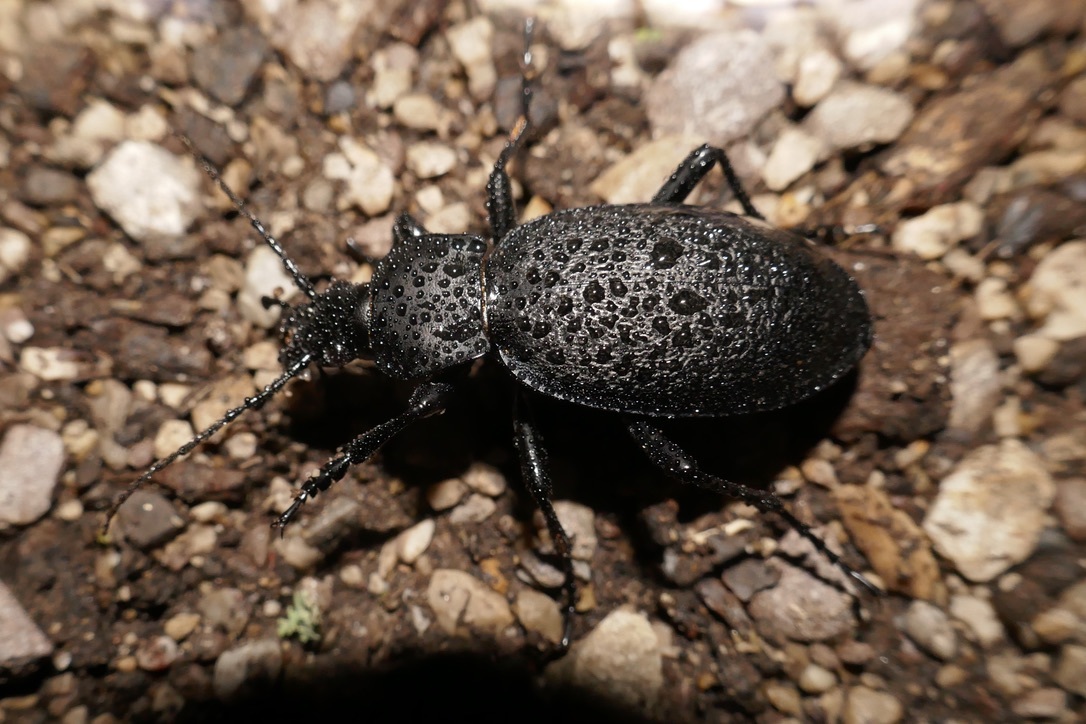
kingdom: Animalia
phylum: Arthropoda
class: Insecta
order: Coleoptera
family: Carabidae
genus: Carabus
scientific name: Carabus coriaceus
